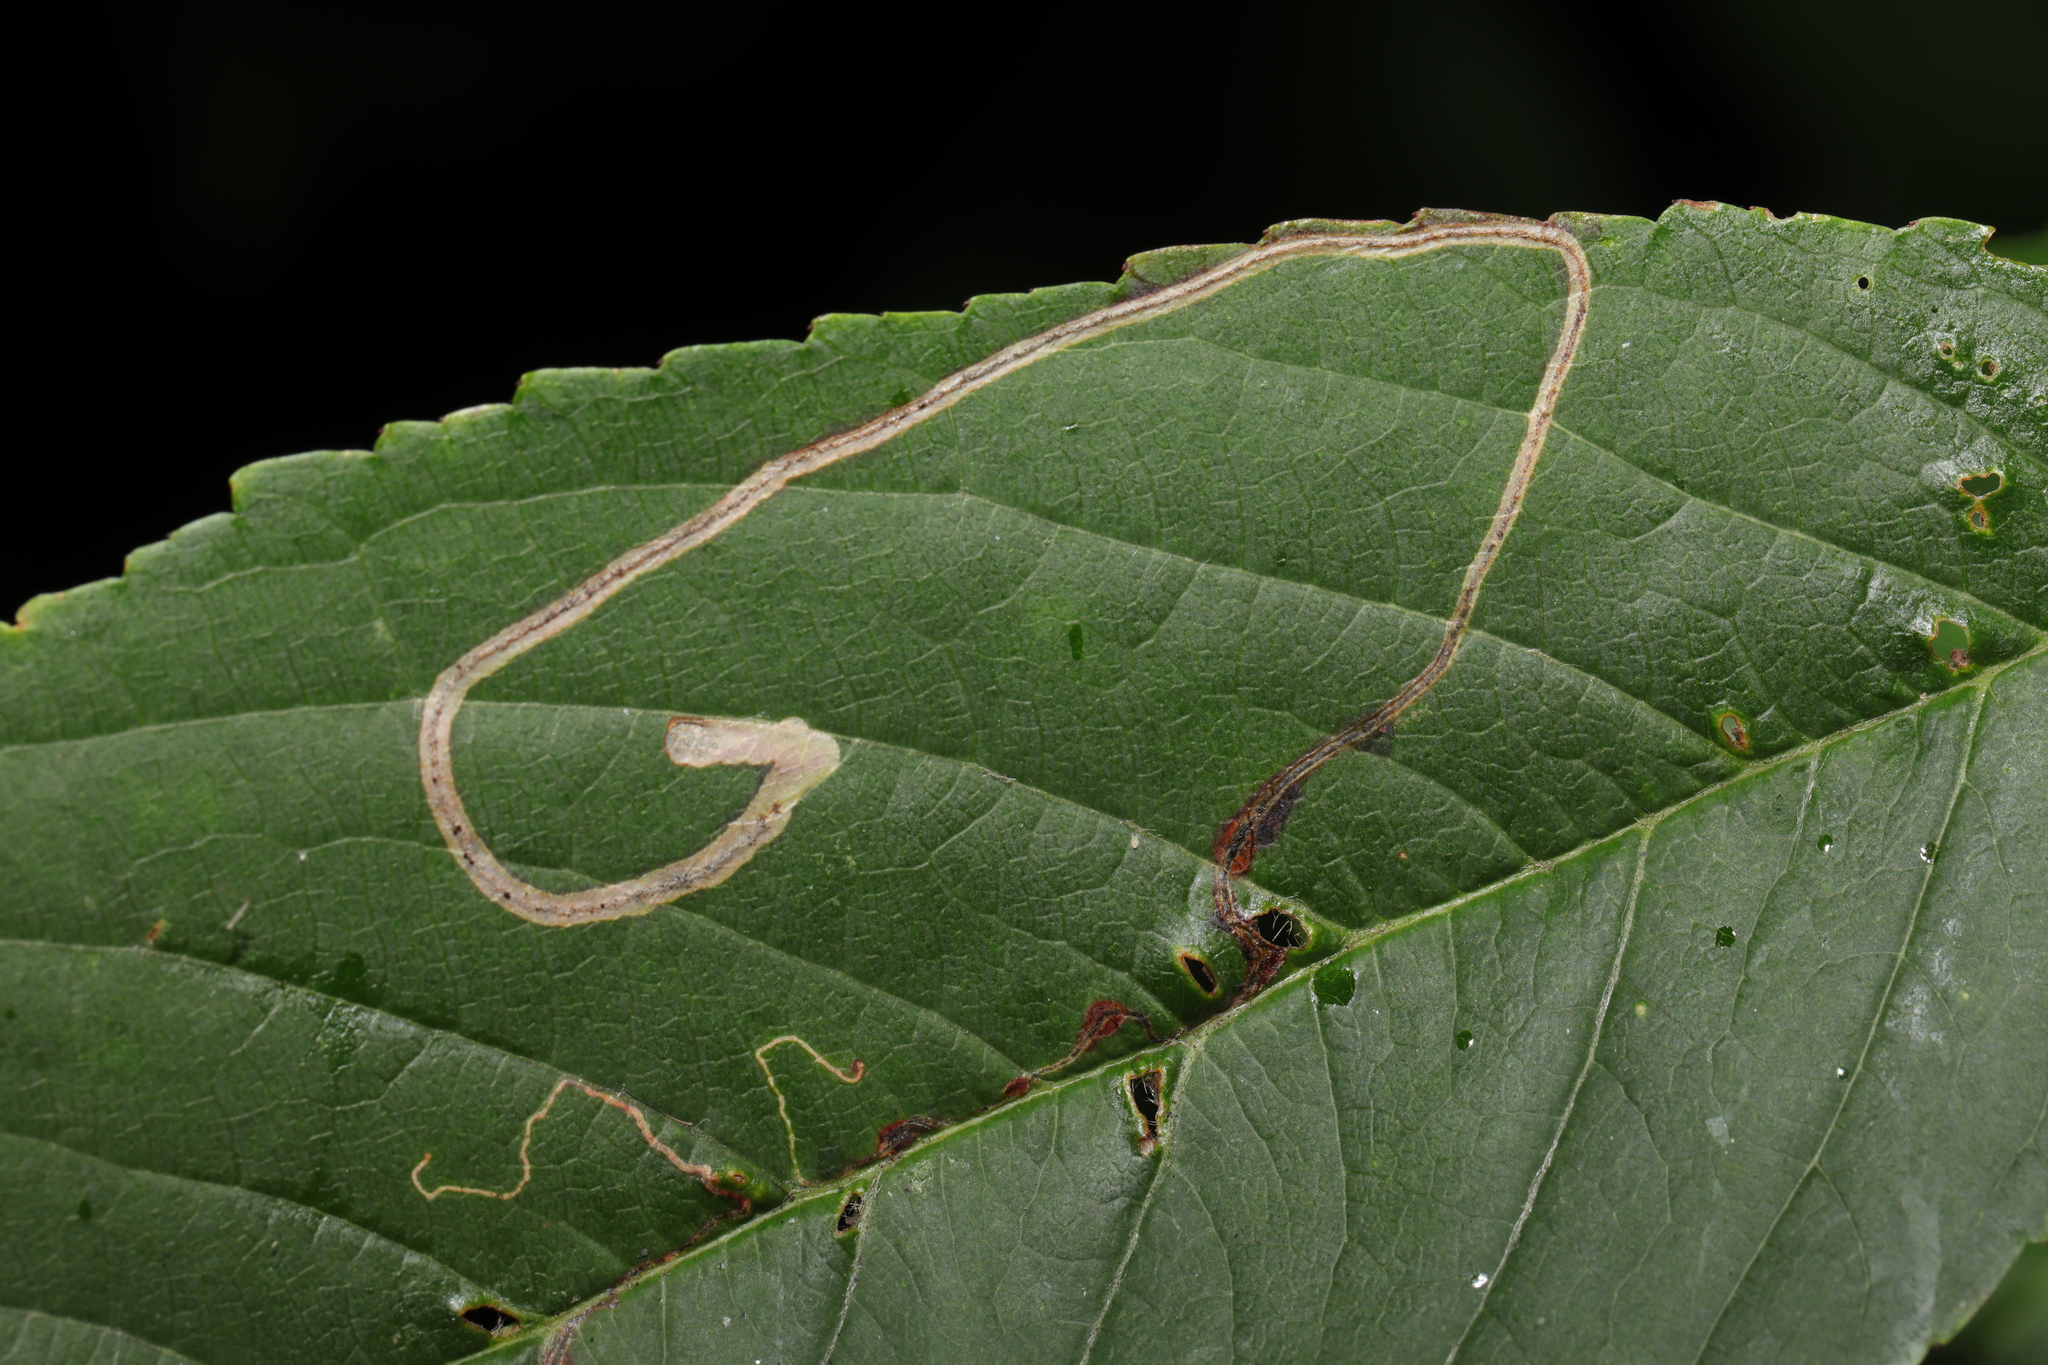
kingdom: Animalia
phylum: Arthropoda
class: Insecta
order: Lepidoptera
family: Lyonetiidae
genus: Lyonetia
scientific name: Lyonetia clerkella
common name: Apple leaf miner
